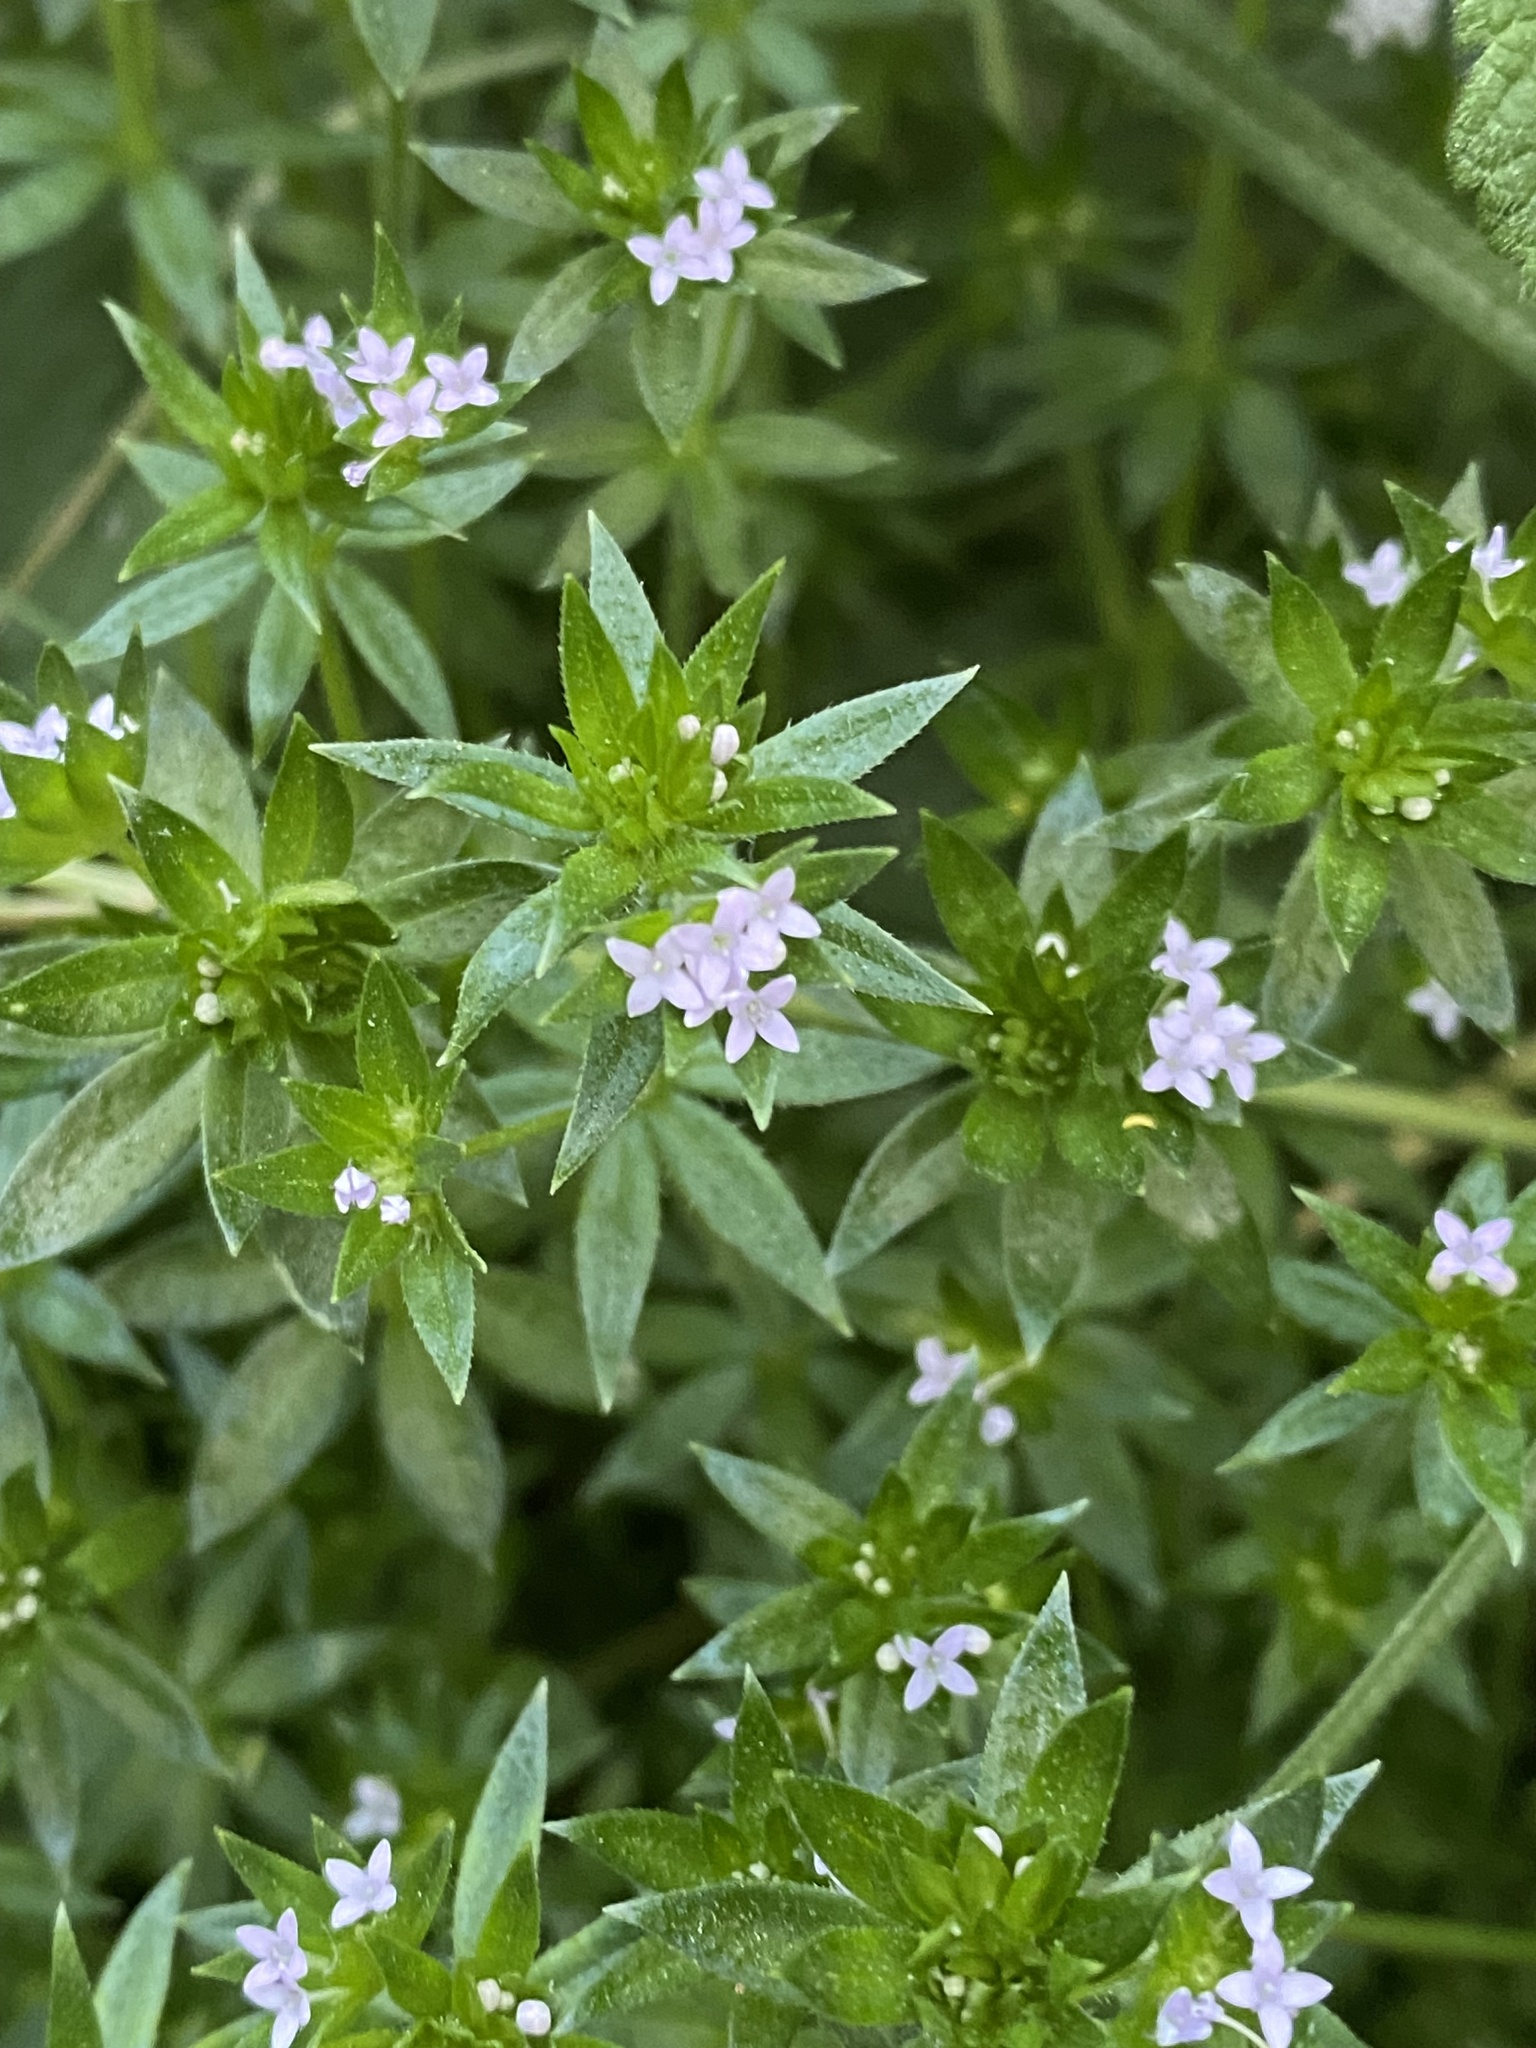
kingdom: Plantae
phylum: Tracheophyta
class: Magnoliopsida
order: Gentianales
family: Rubiaceae
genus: Sherardia
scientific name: Sherardia arvensis
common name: Field madder
